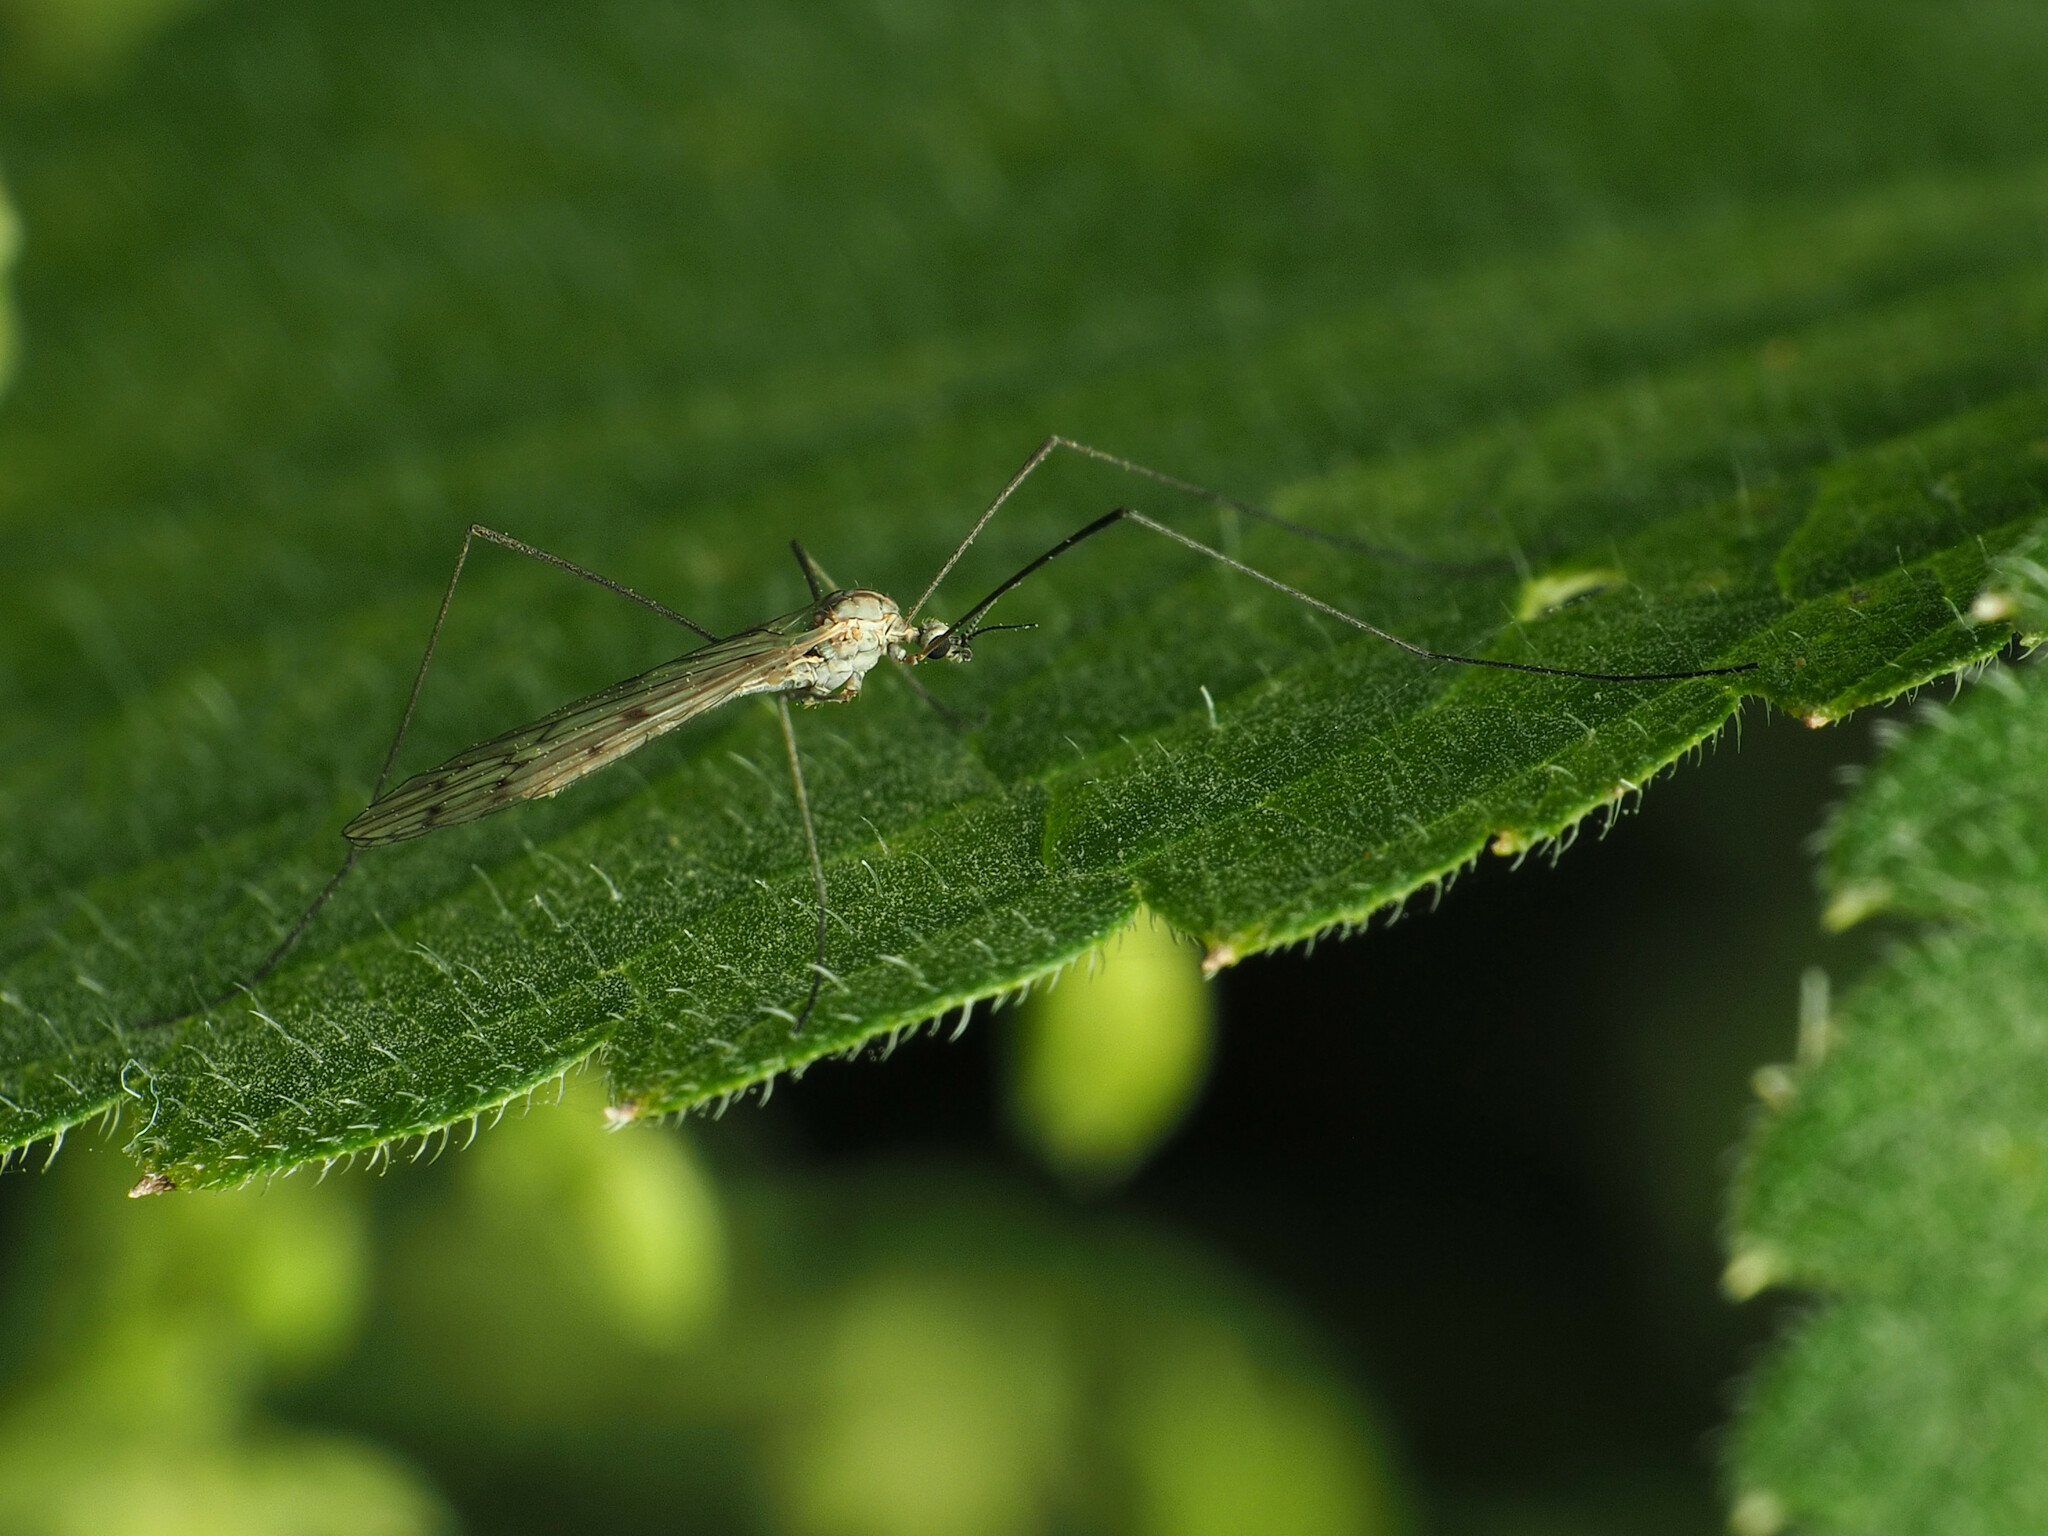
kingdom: Animalia
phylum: Arthropoda
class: Insecta
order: Diptera
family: Limoniidae
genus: Symplecta
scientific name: Symplecta cana
